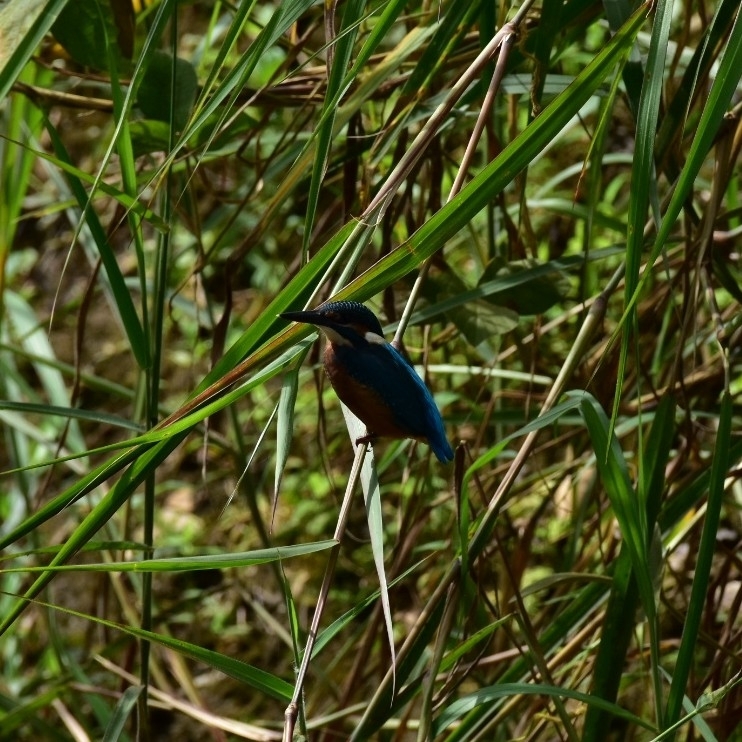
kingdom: Animalia
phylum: Chordata
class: Aves
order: Coraciiformes
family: Alcedinidae
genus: Alcedo
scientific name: Alcedo atthis
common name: Common kingfisher
